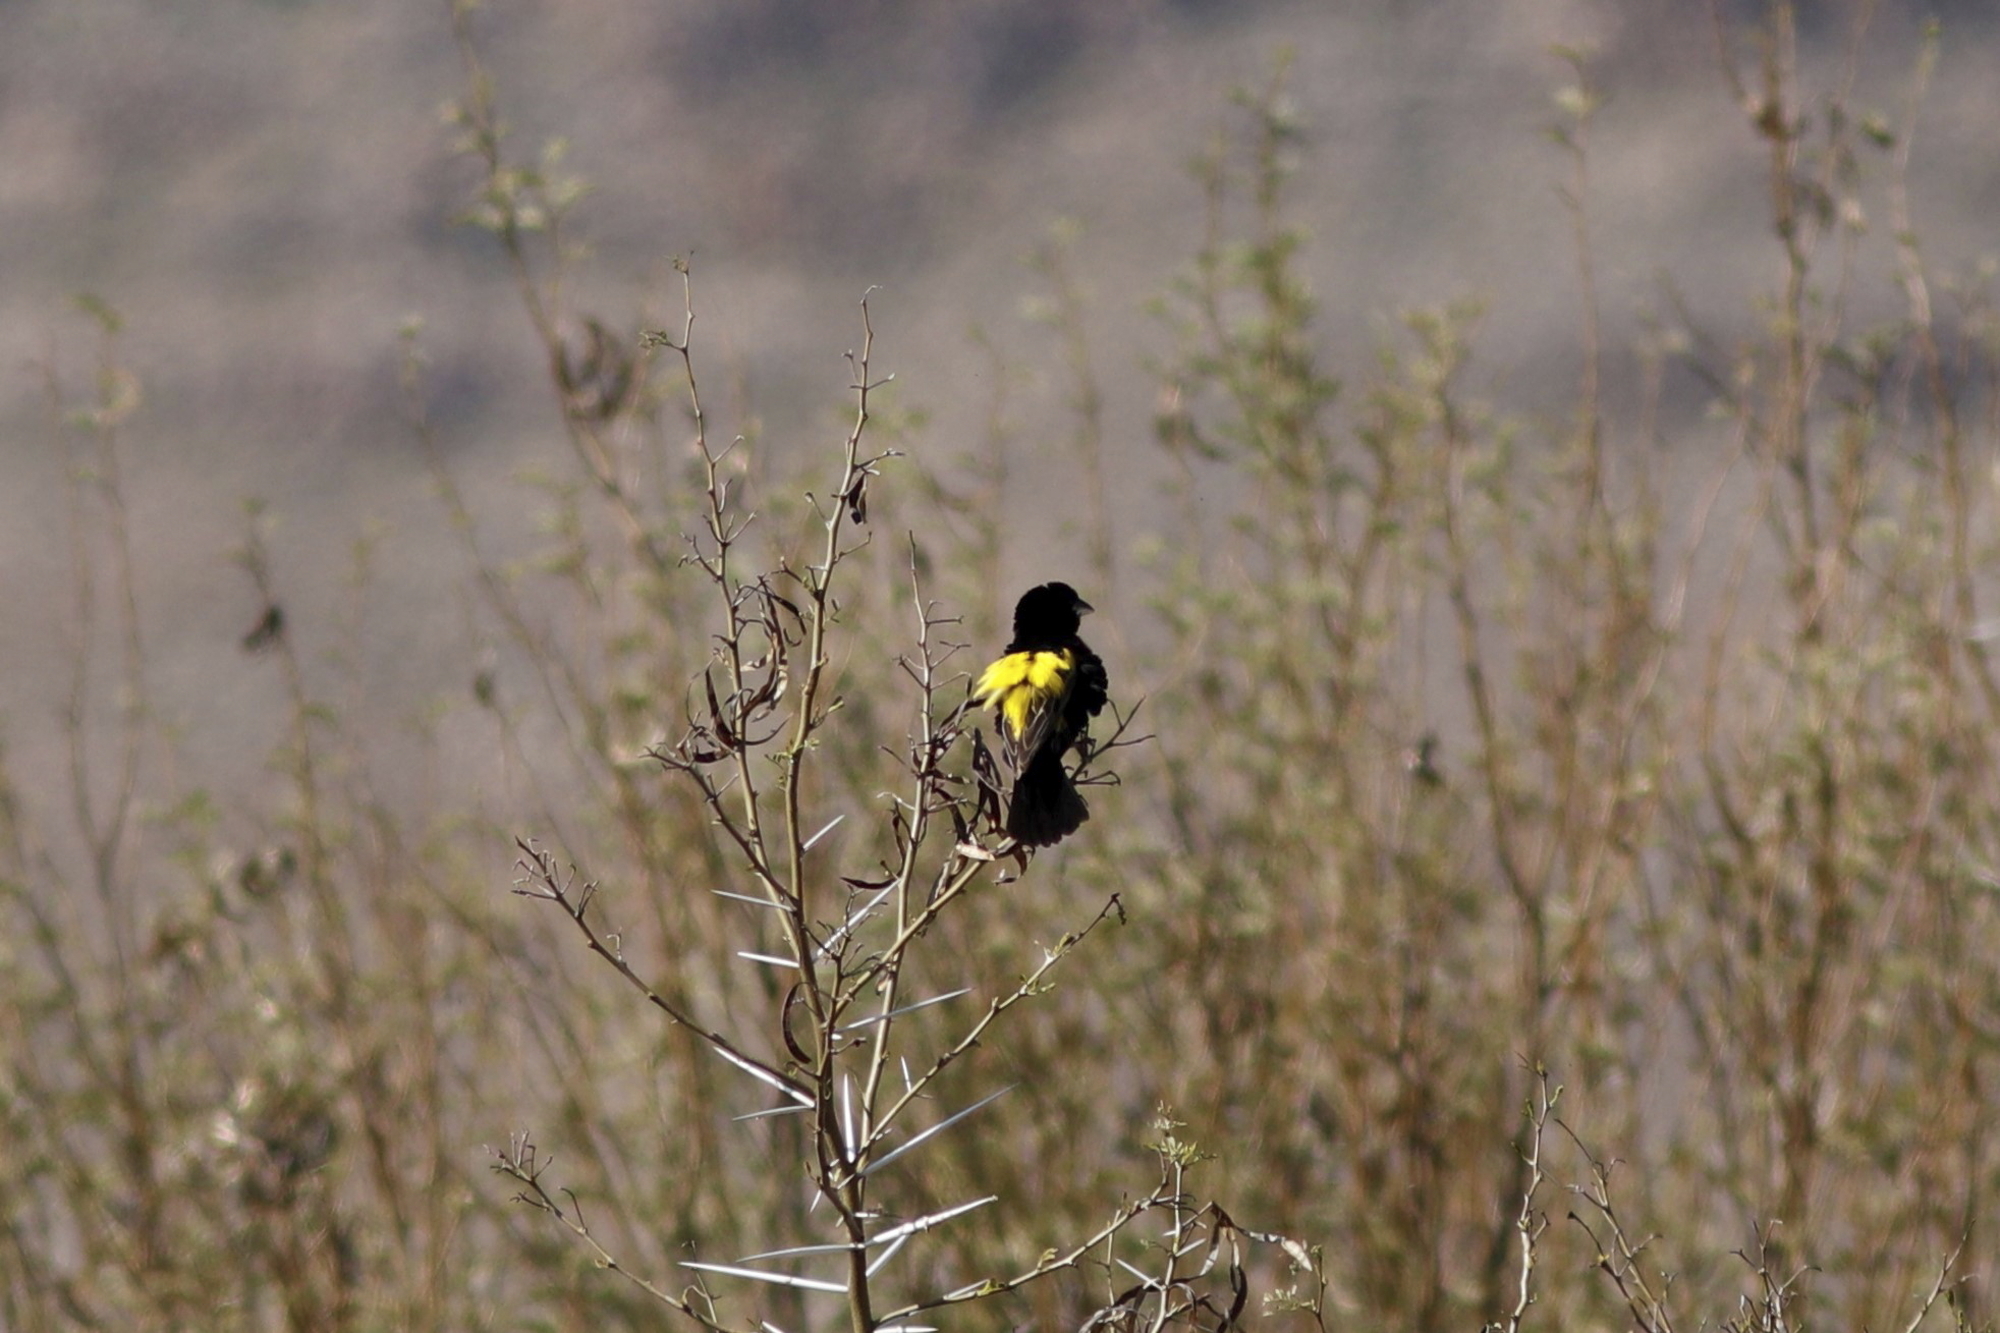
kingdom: Animalia
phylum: Chordata
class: Aves
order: Passeriformes
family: Ploceidae
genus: Euplectes
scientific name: Euplectes capensis
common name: Yellow bishop
